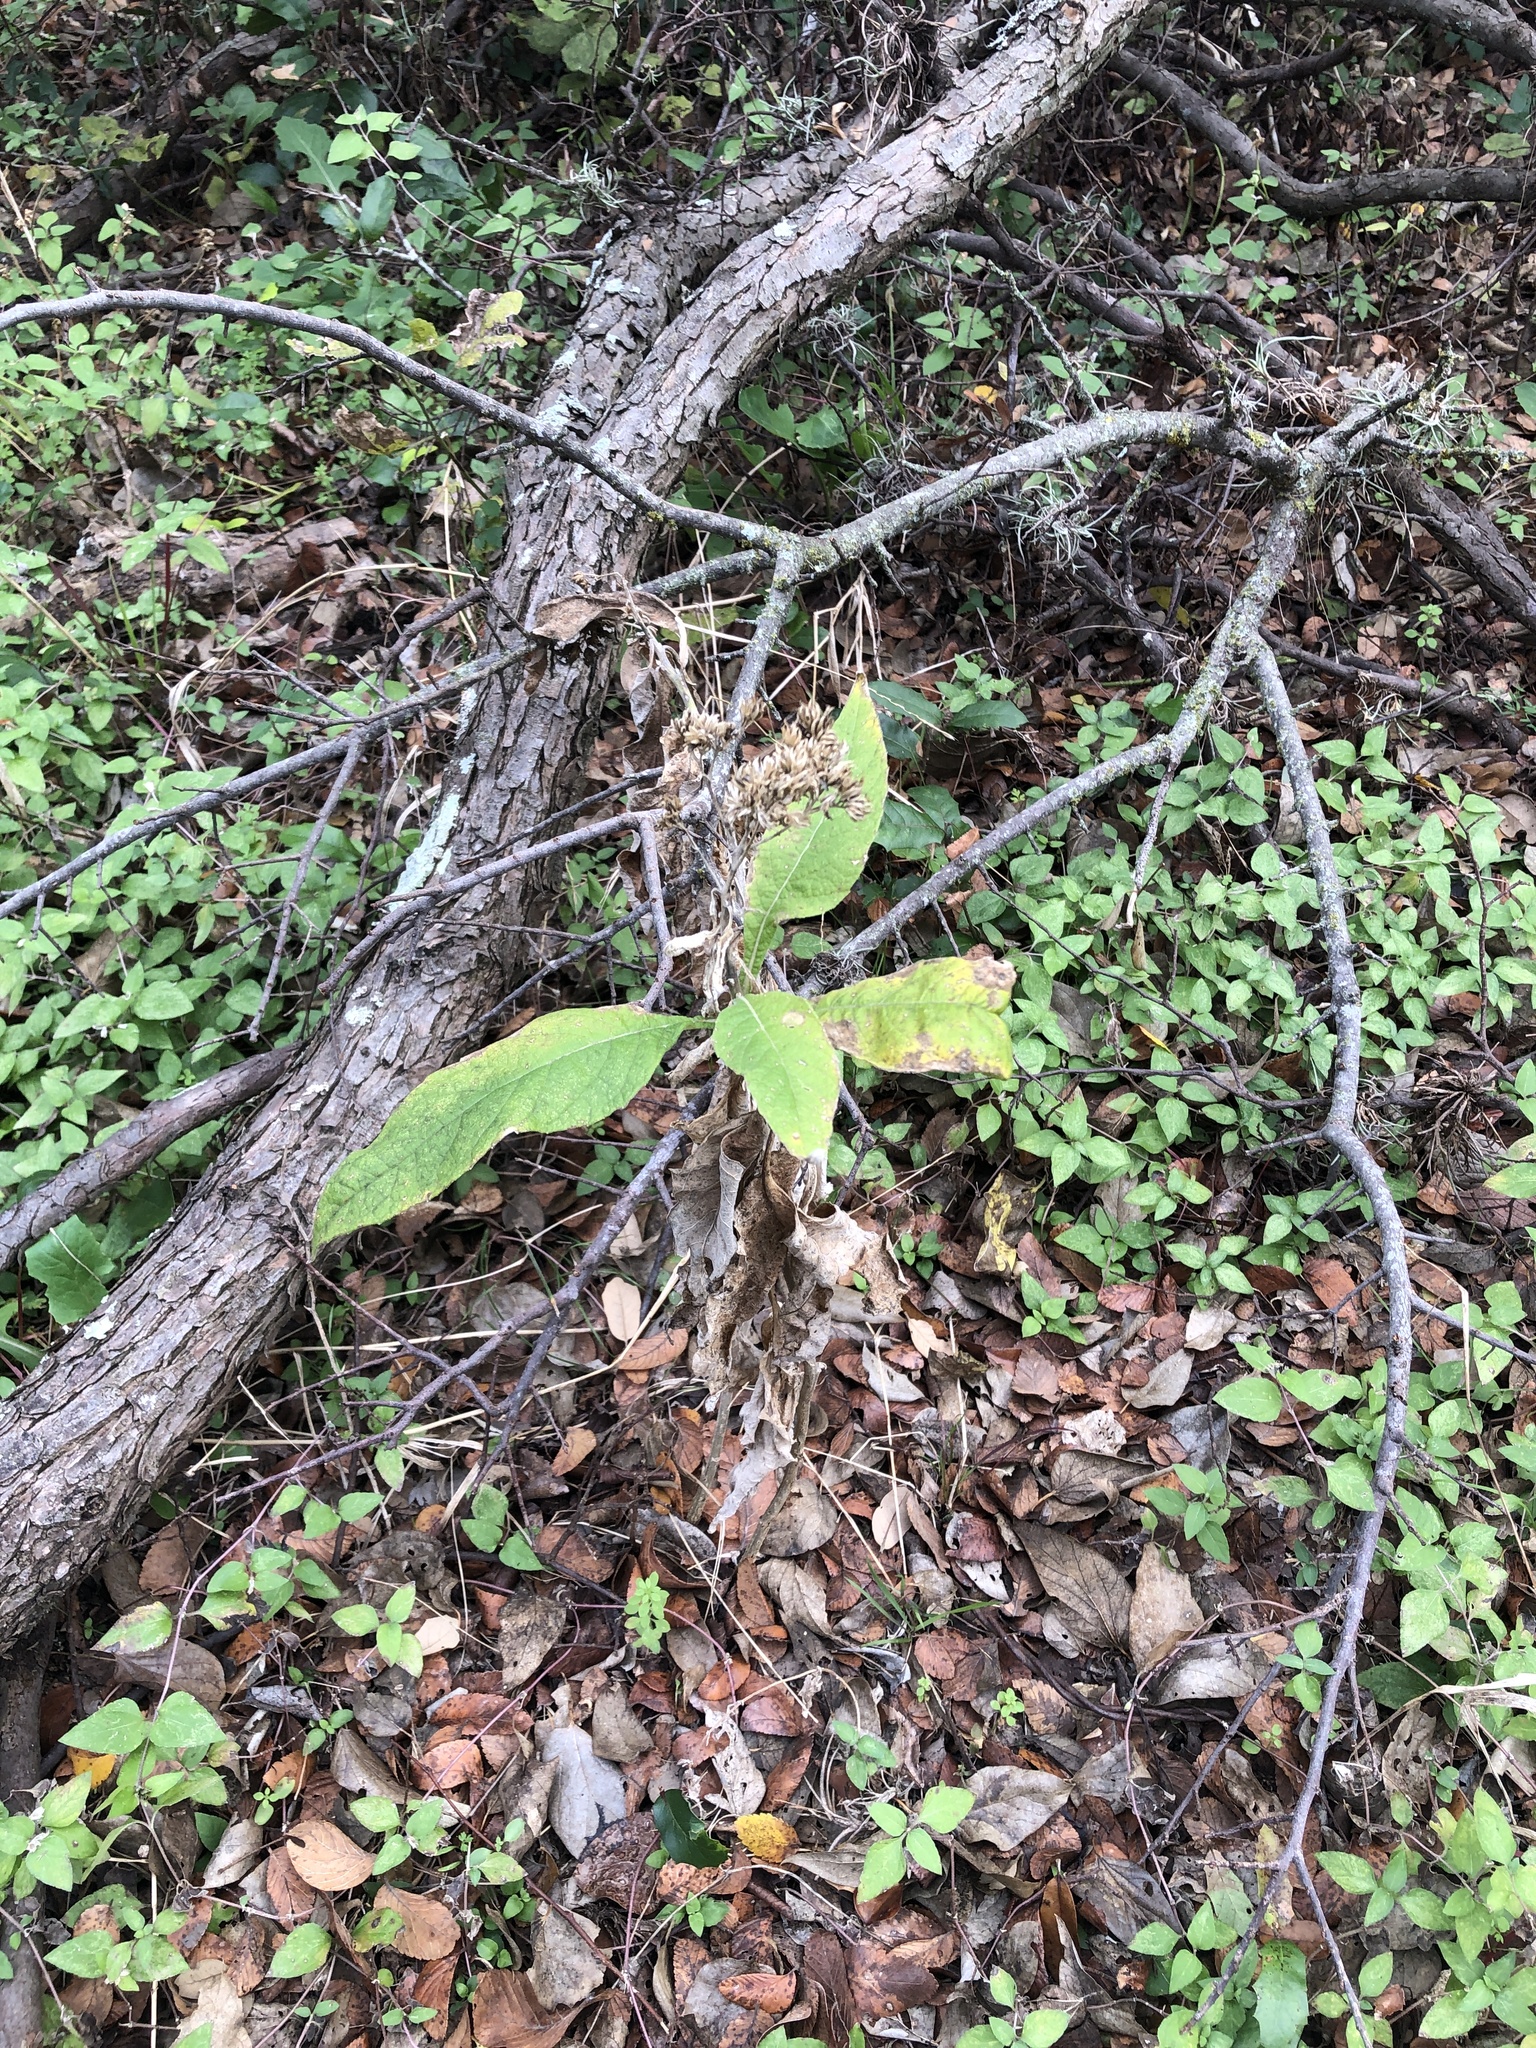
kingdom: Plantae
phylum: Tracheophyta
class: Magnoliopsida
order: Asterales
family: Asteraceae
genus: Verbesina
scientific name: Verbesina virginica
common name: Frostweed
